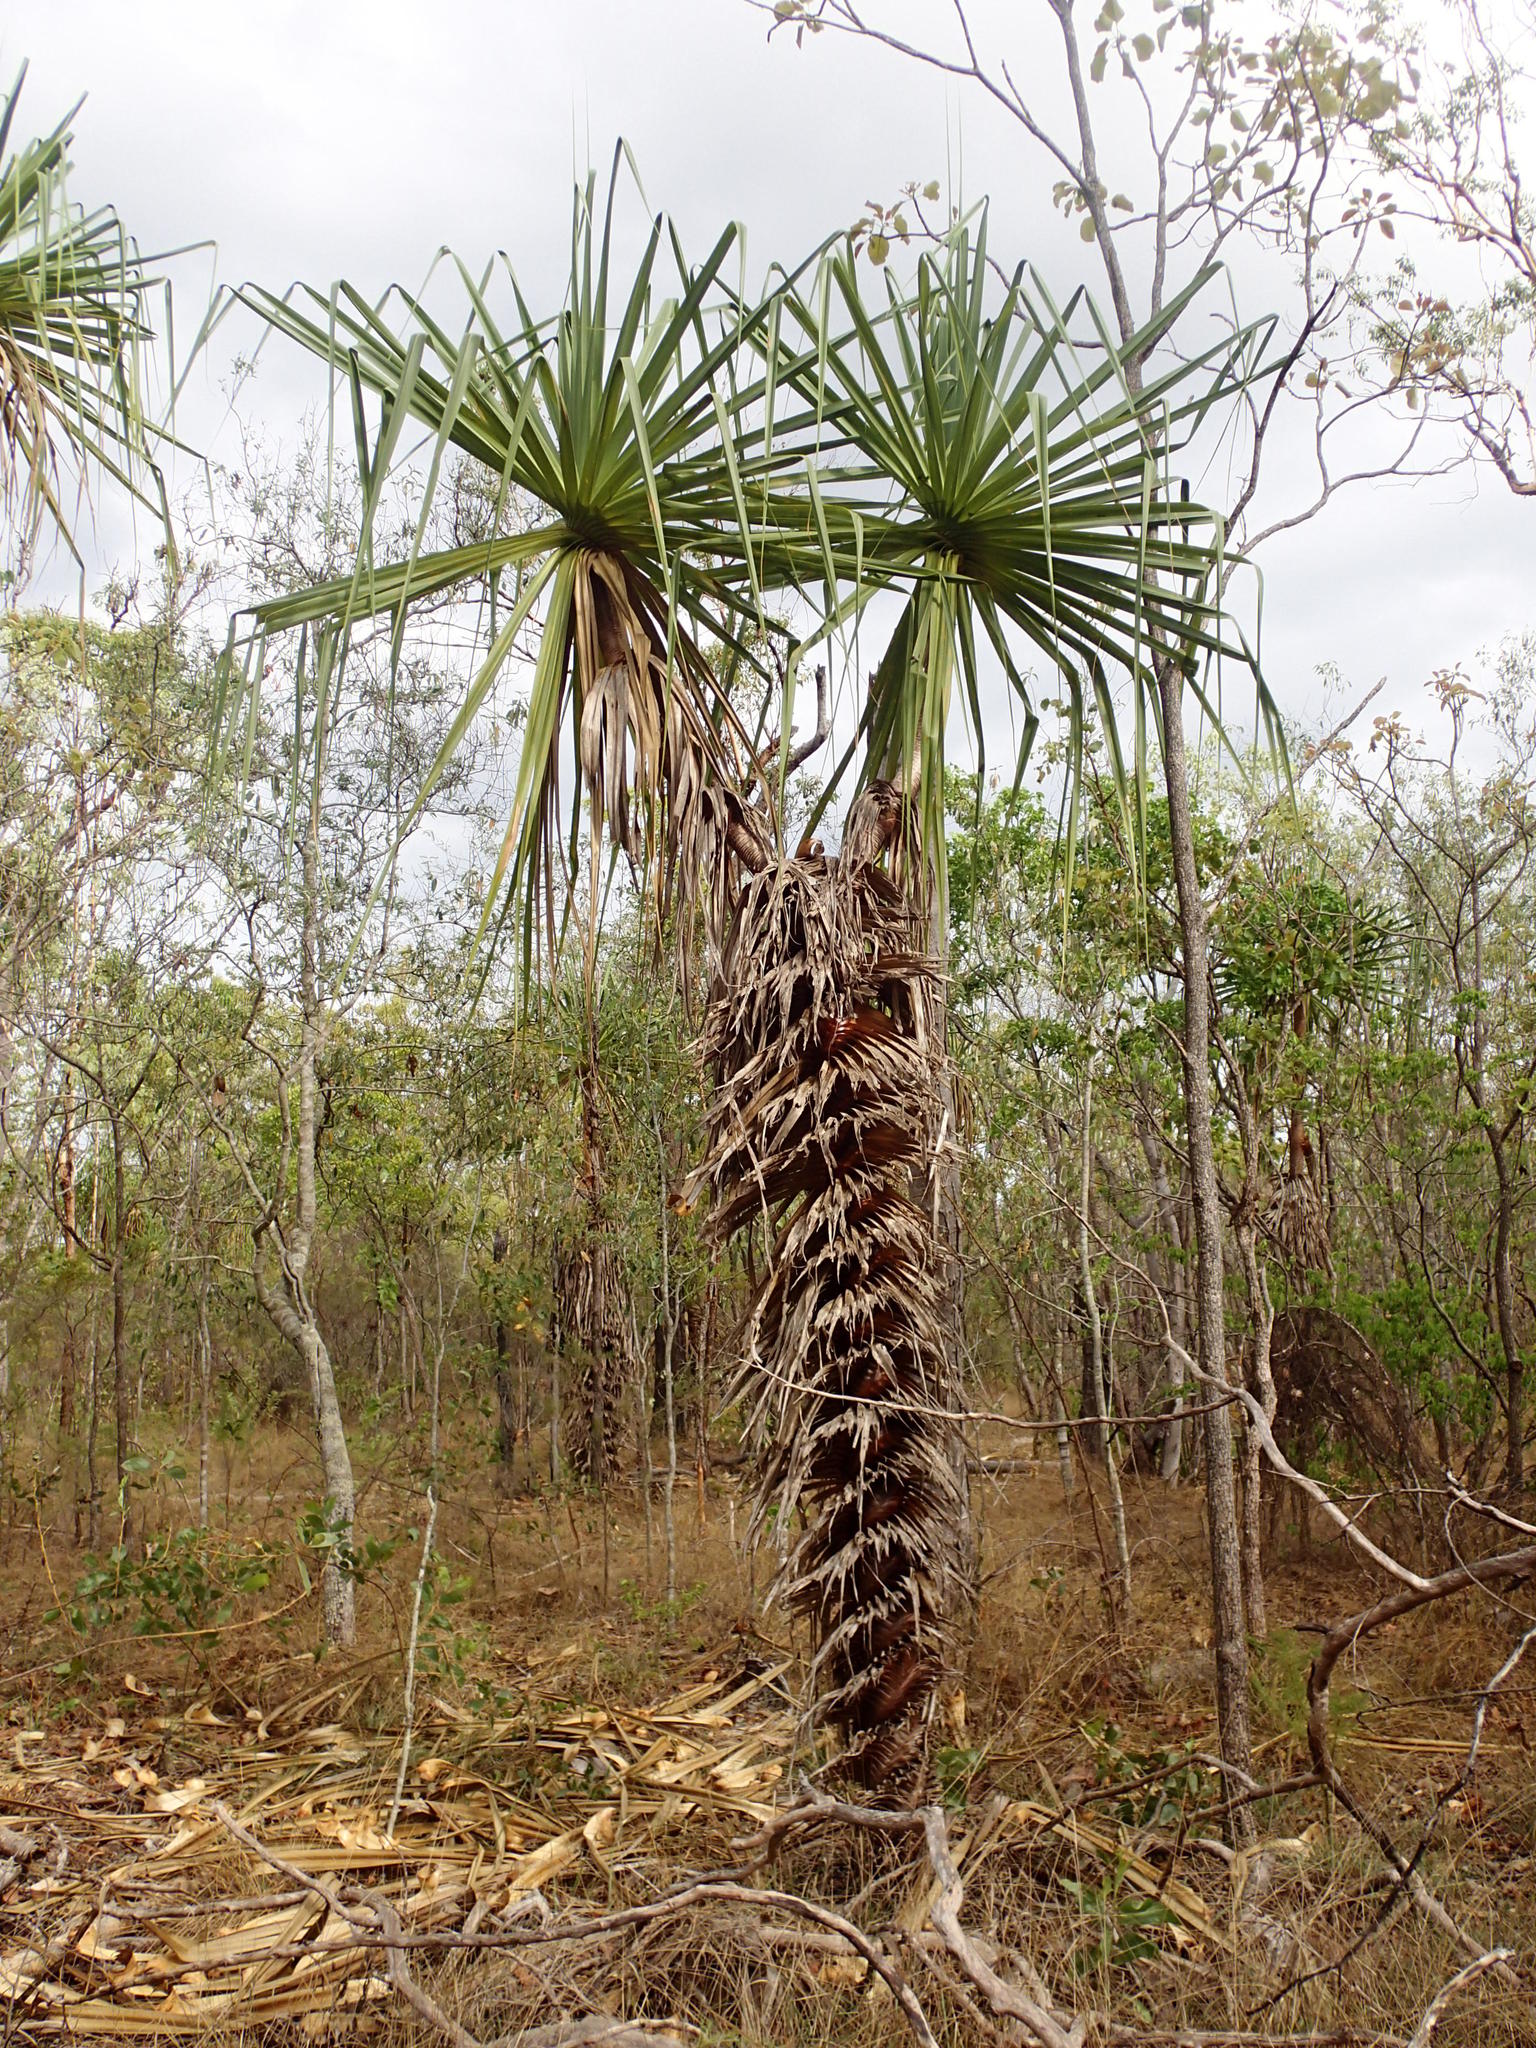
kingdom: Plantae
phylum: Tracheophyta
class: Liliopsida
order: Pandanales
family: Pandanaceae
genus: Pandanus
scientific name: Pandanus spiralis
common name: Screw-pine
